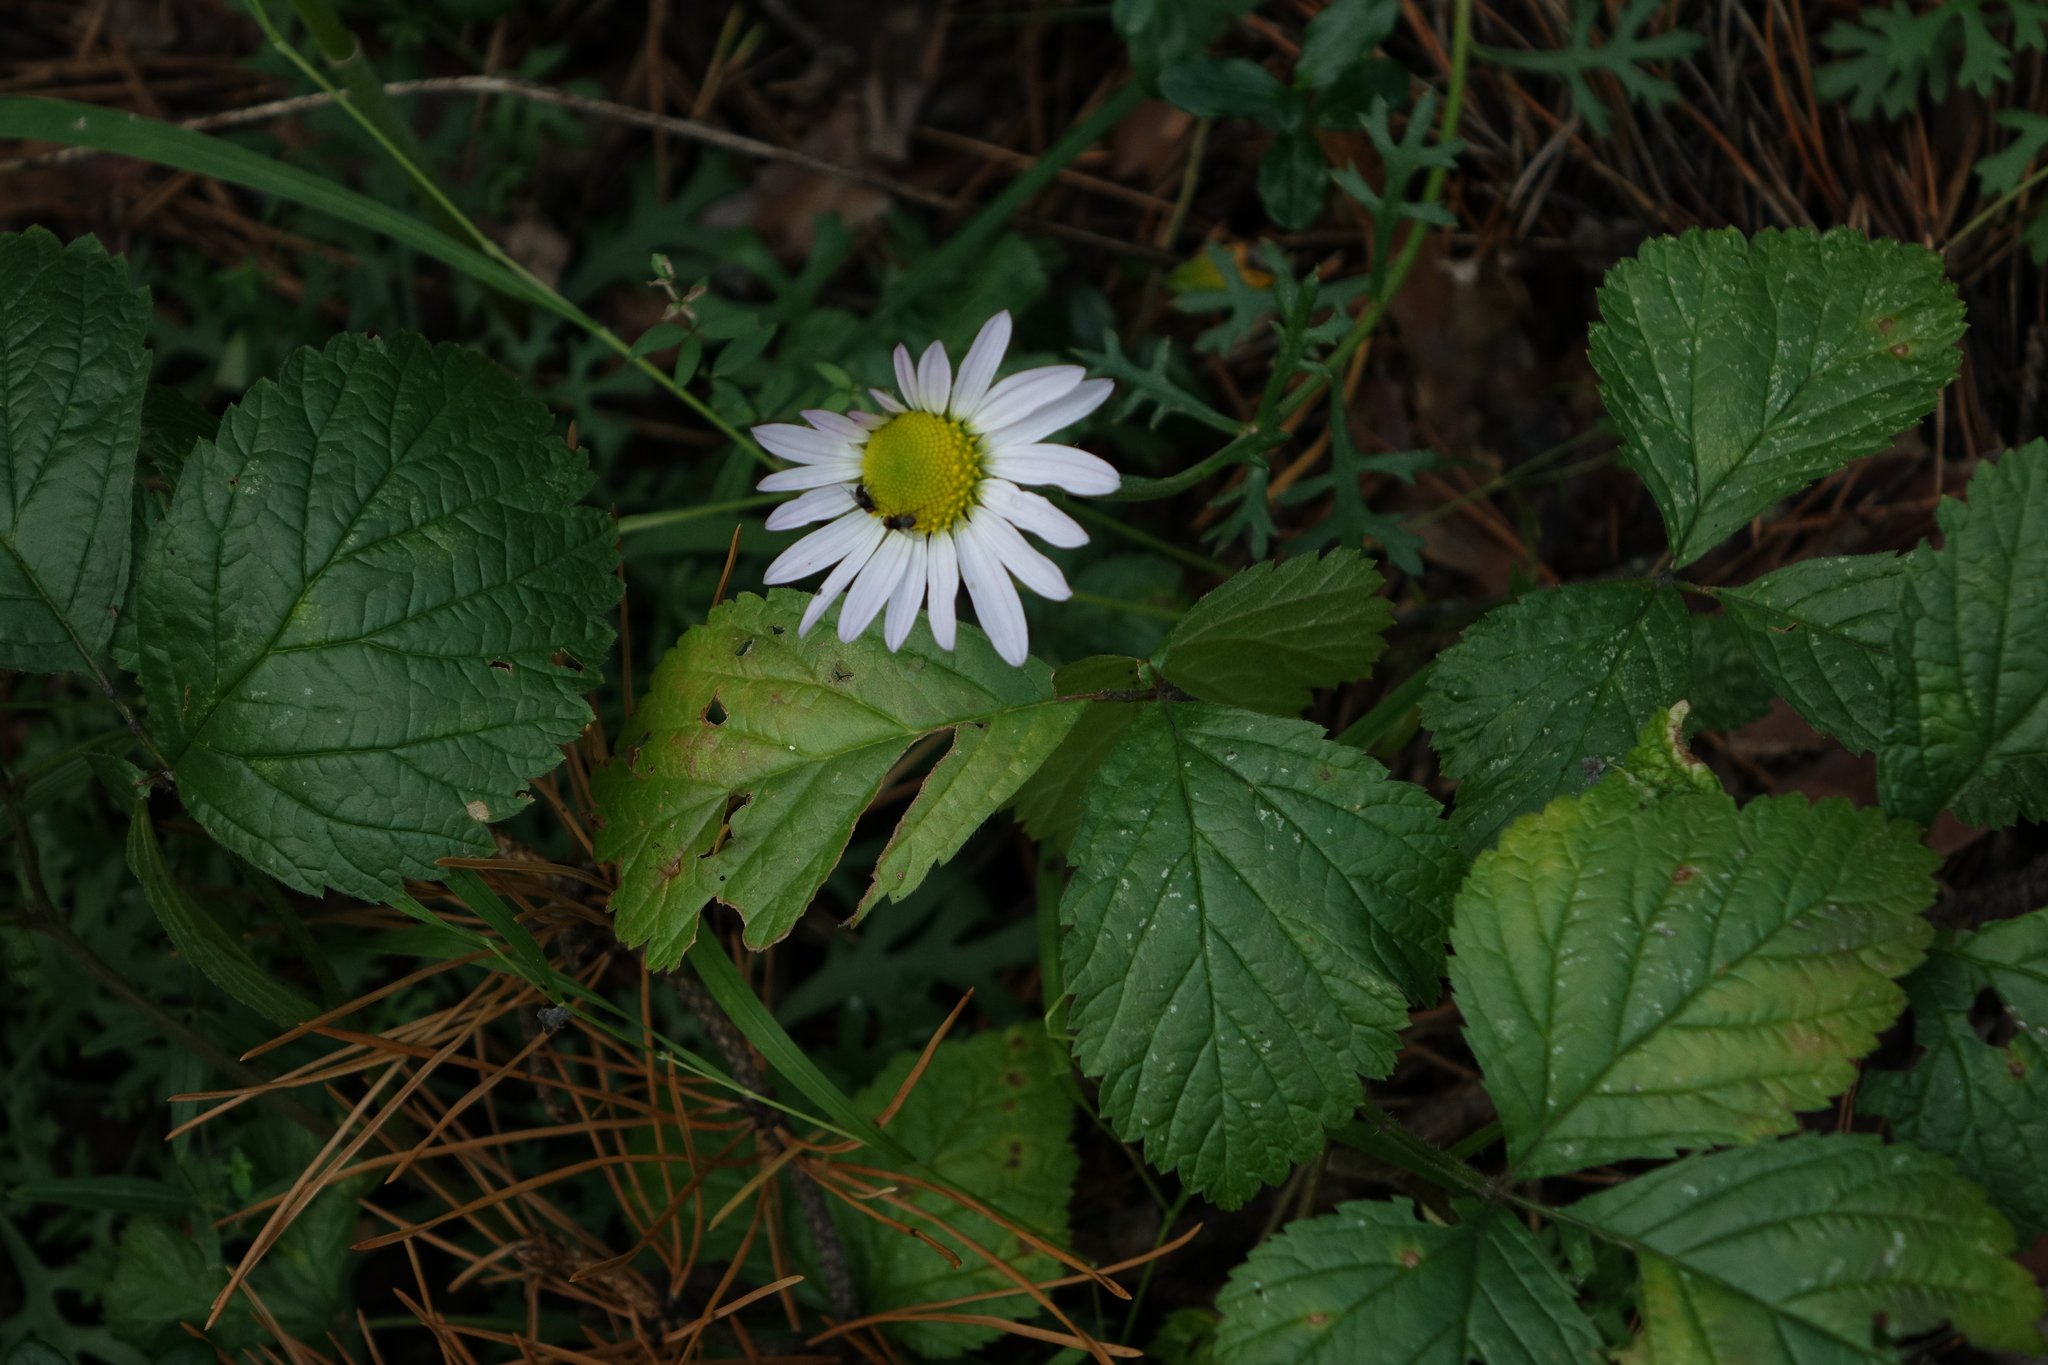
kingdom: Plantae
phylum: Tracheophyta
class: Magnoliopsida
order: Asterales
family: Asteraceae
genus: Chrysanthemum
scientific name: Chrysanthemum zawadzkii
